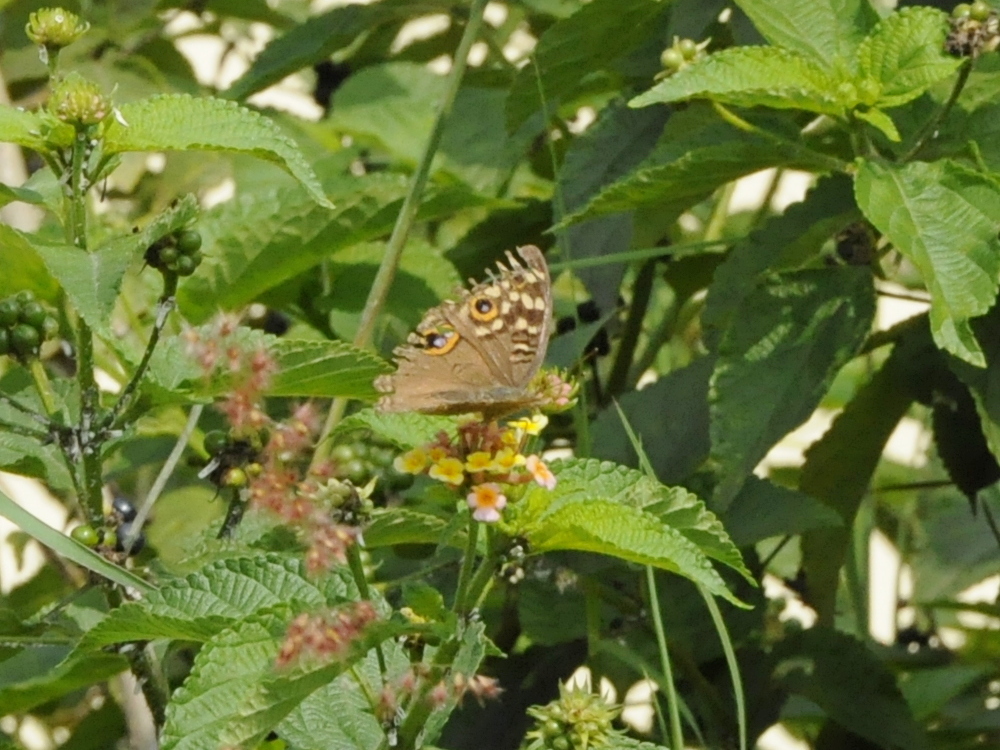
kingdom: Animalia
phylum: Arthropoda
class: Insecta
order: Lepidoptera
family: Nymphalidae
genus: Junonia
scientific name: Junonia lemonias
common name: Lemon pansy
